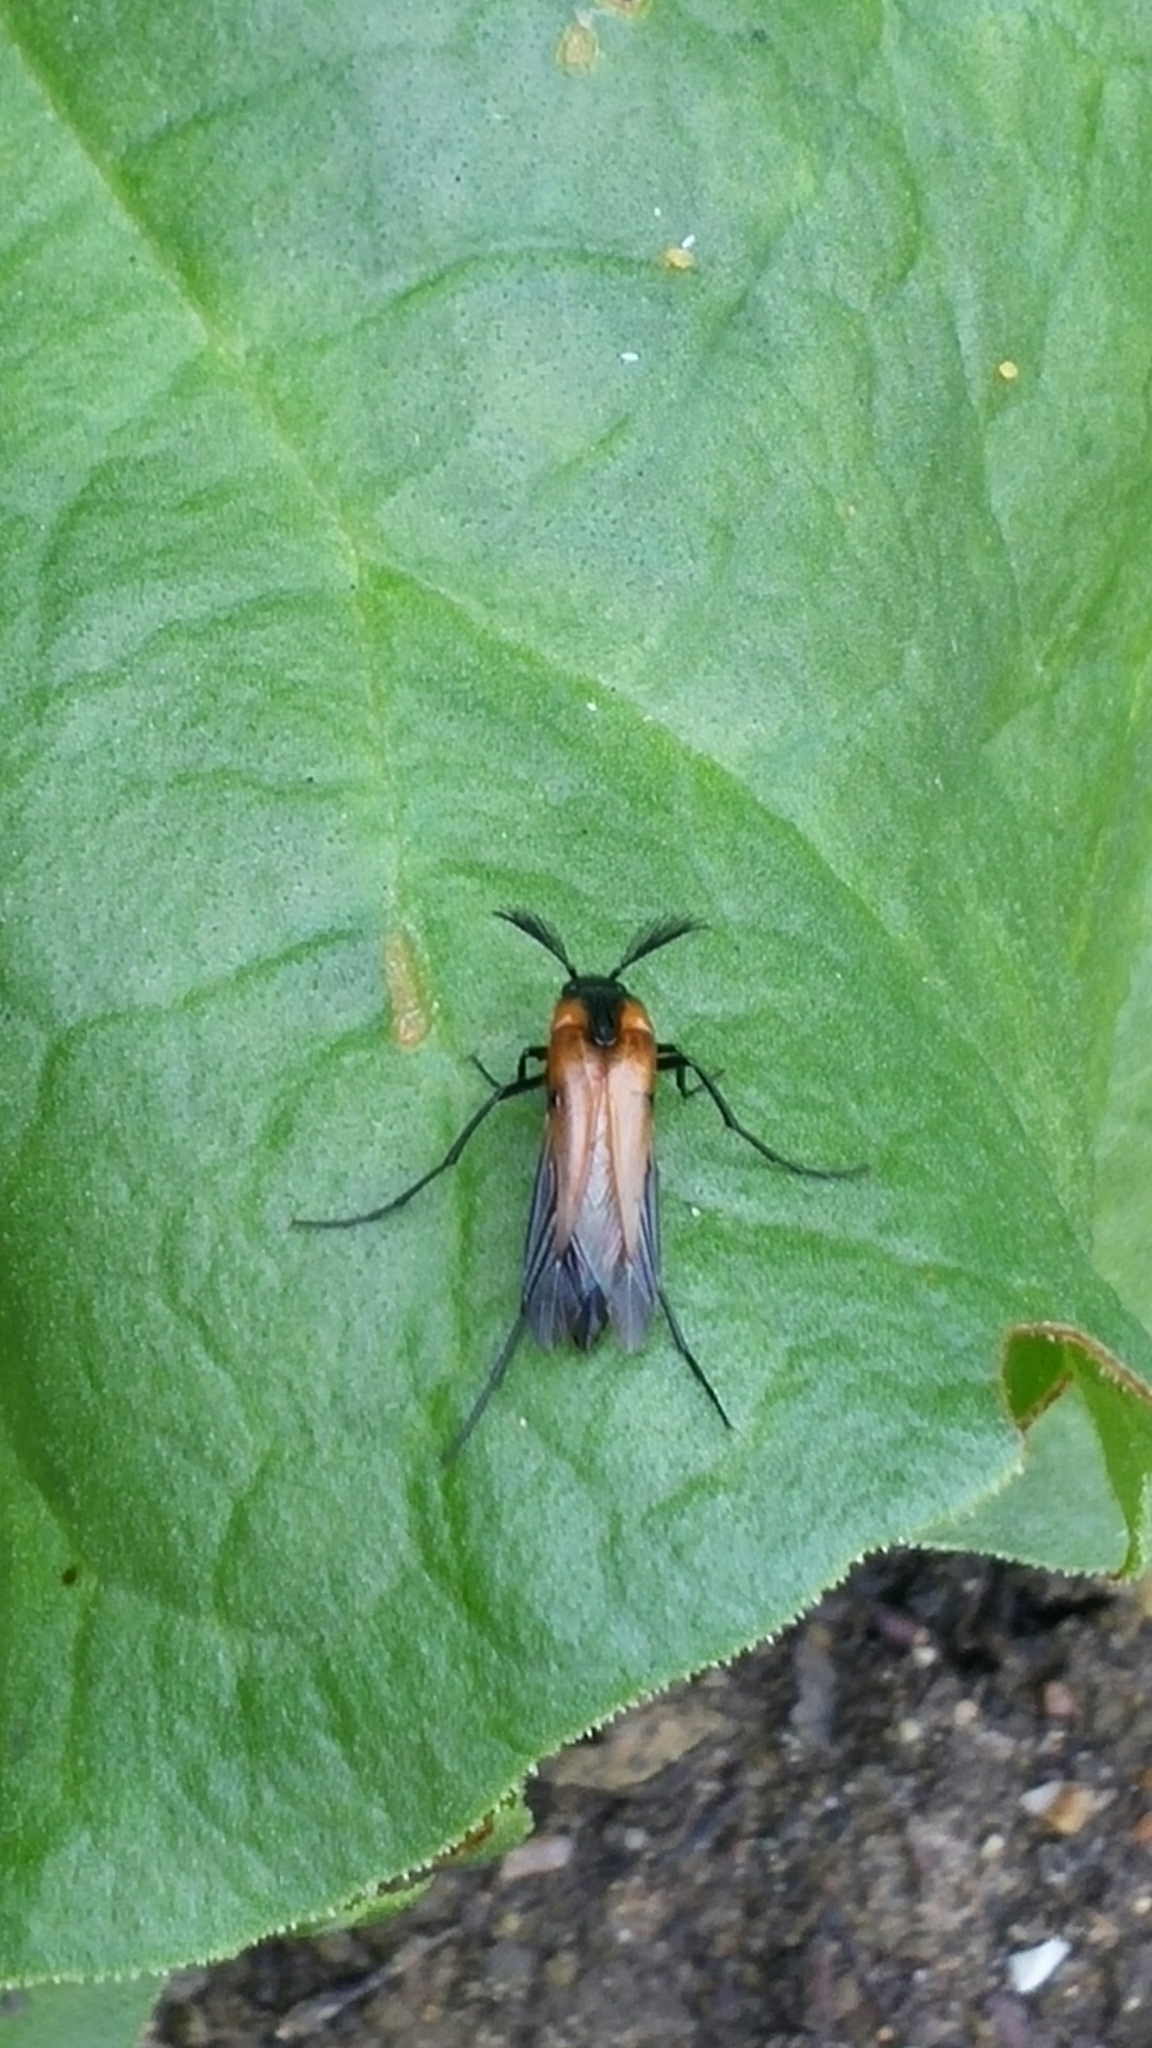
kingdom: Animalia
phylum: Arthropoda
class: Insecta
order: Coleoptera
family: Ripiphoridae
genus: Metoecus
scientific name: Metoecus paradoxus
